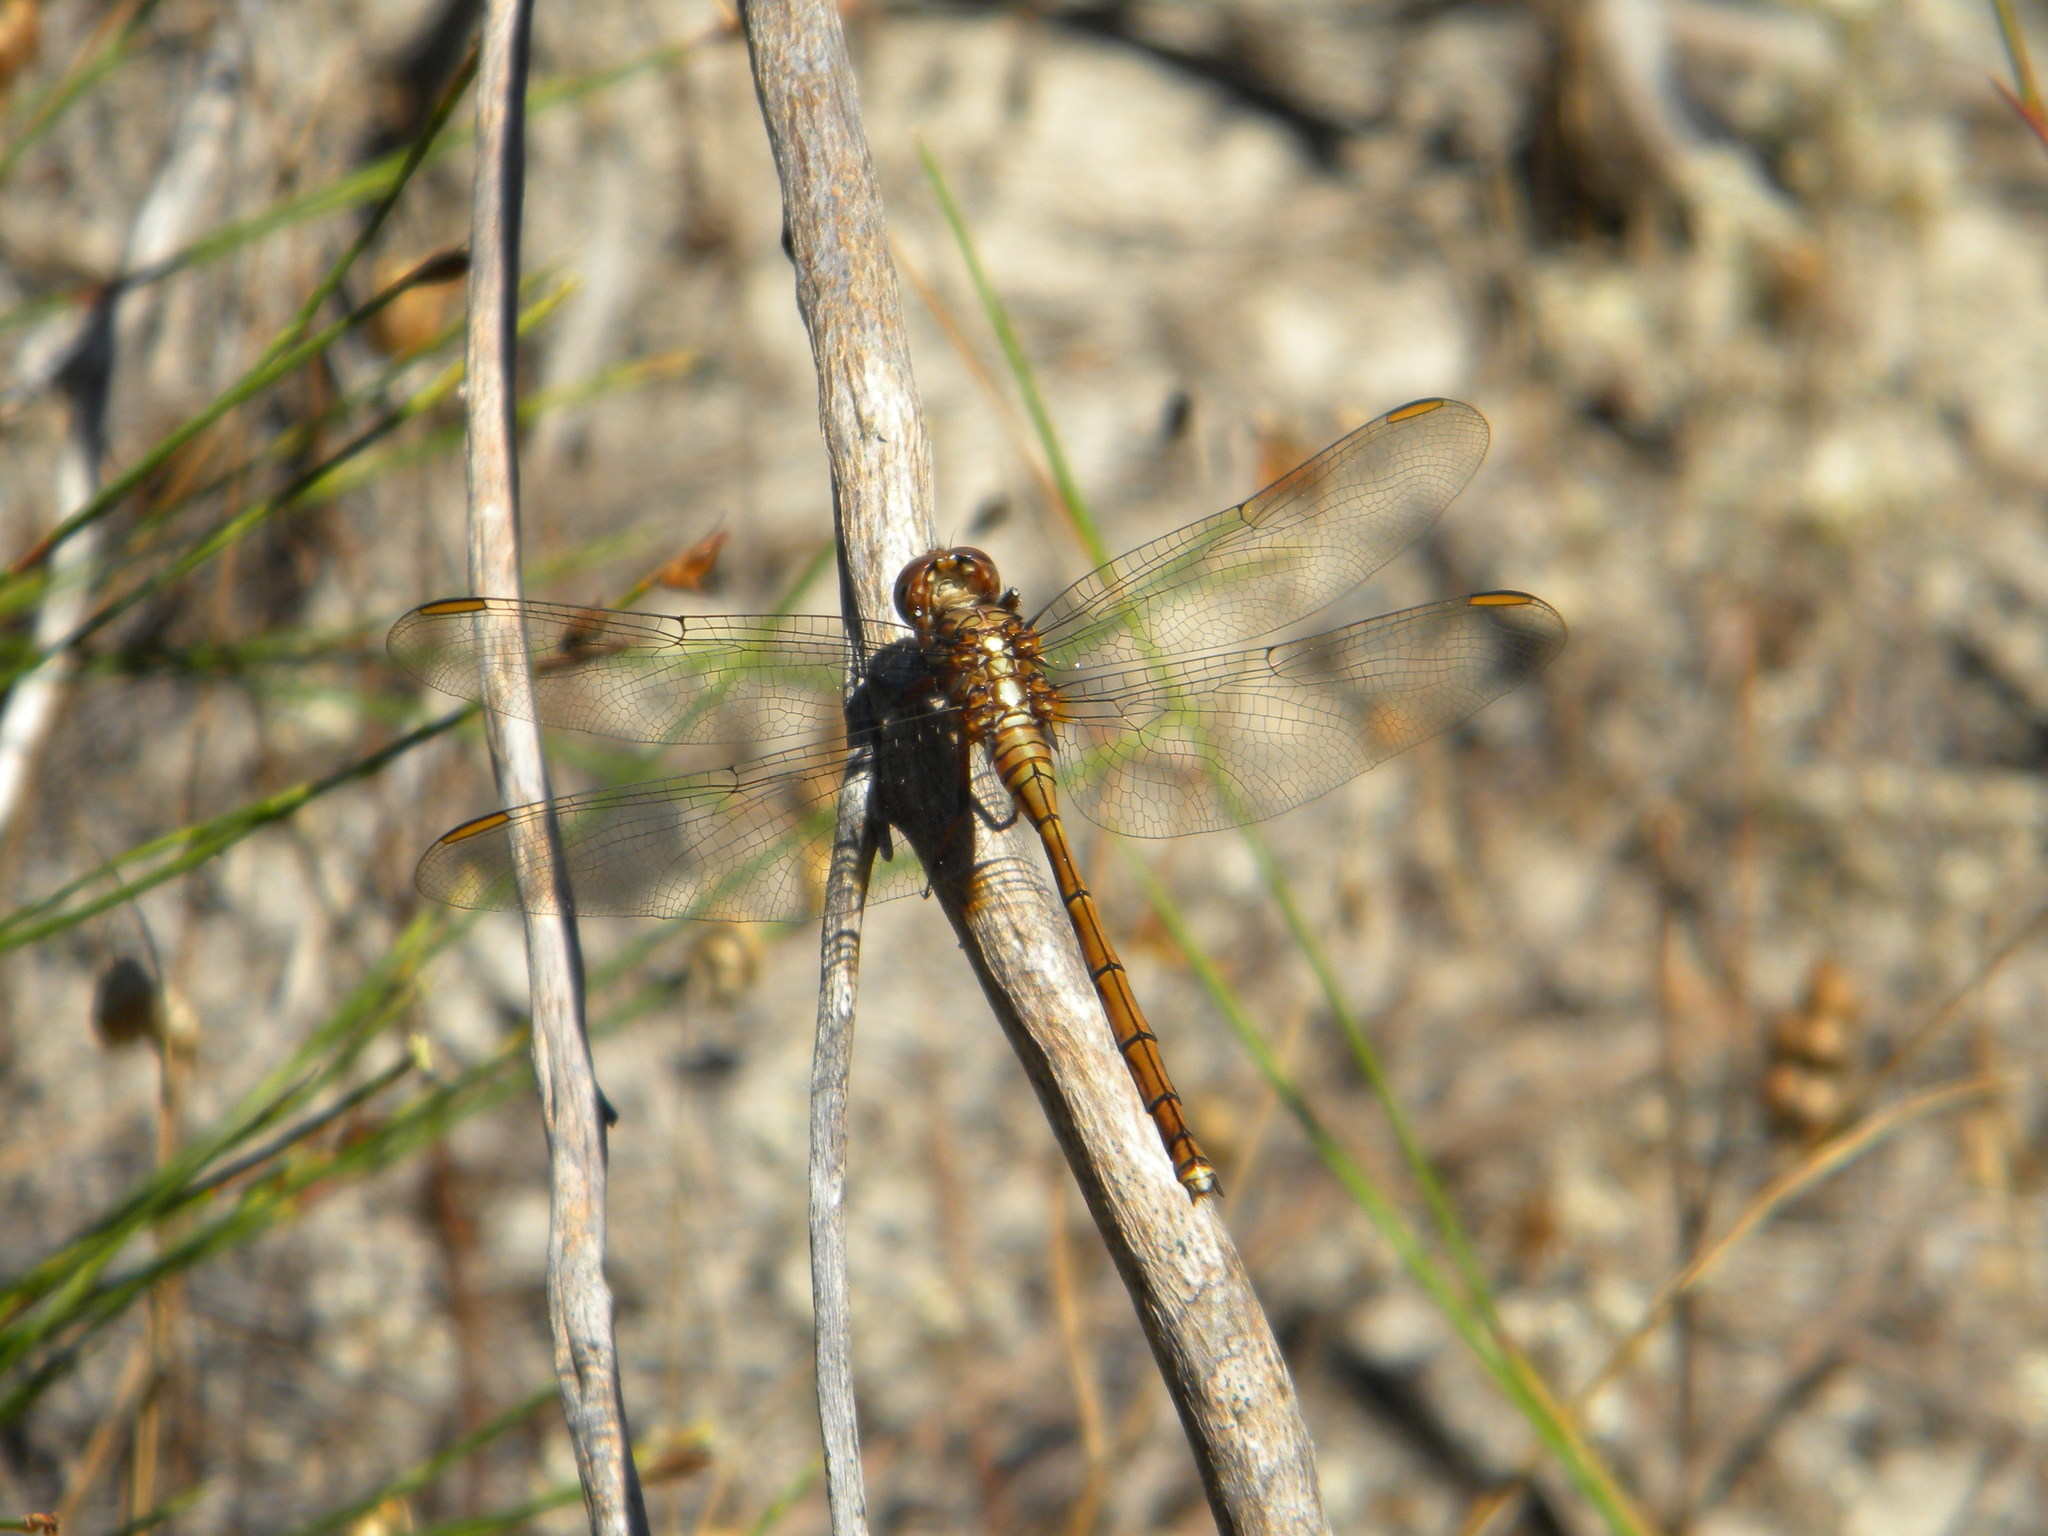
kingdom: Animalia
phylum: Arthropoda
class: Insecta
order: Odonata
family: Libellulidae
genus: Orthetrum
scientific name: Orthetrum julia
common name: Julia skimmer
